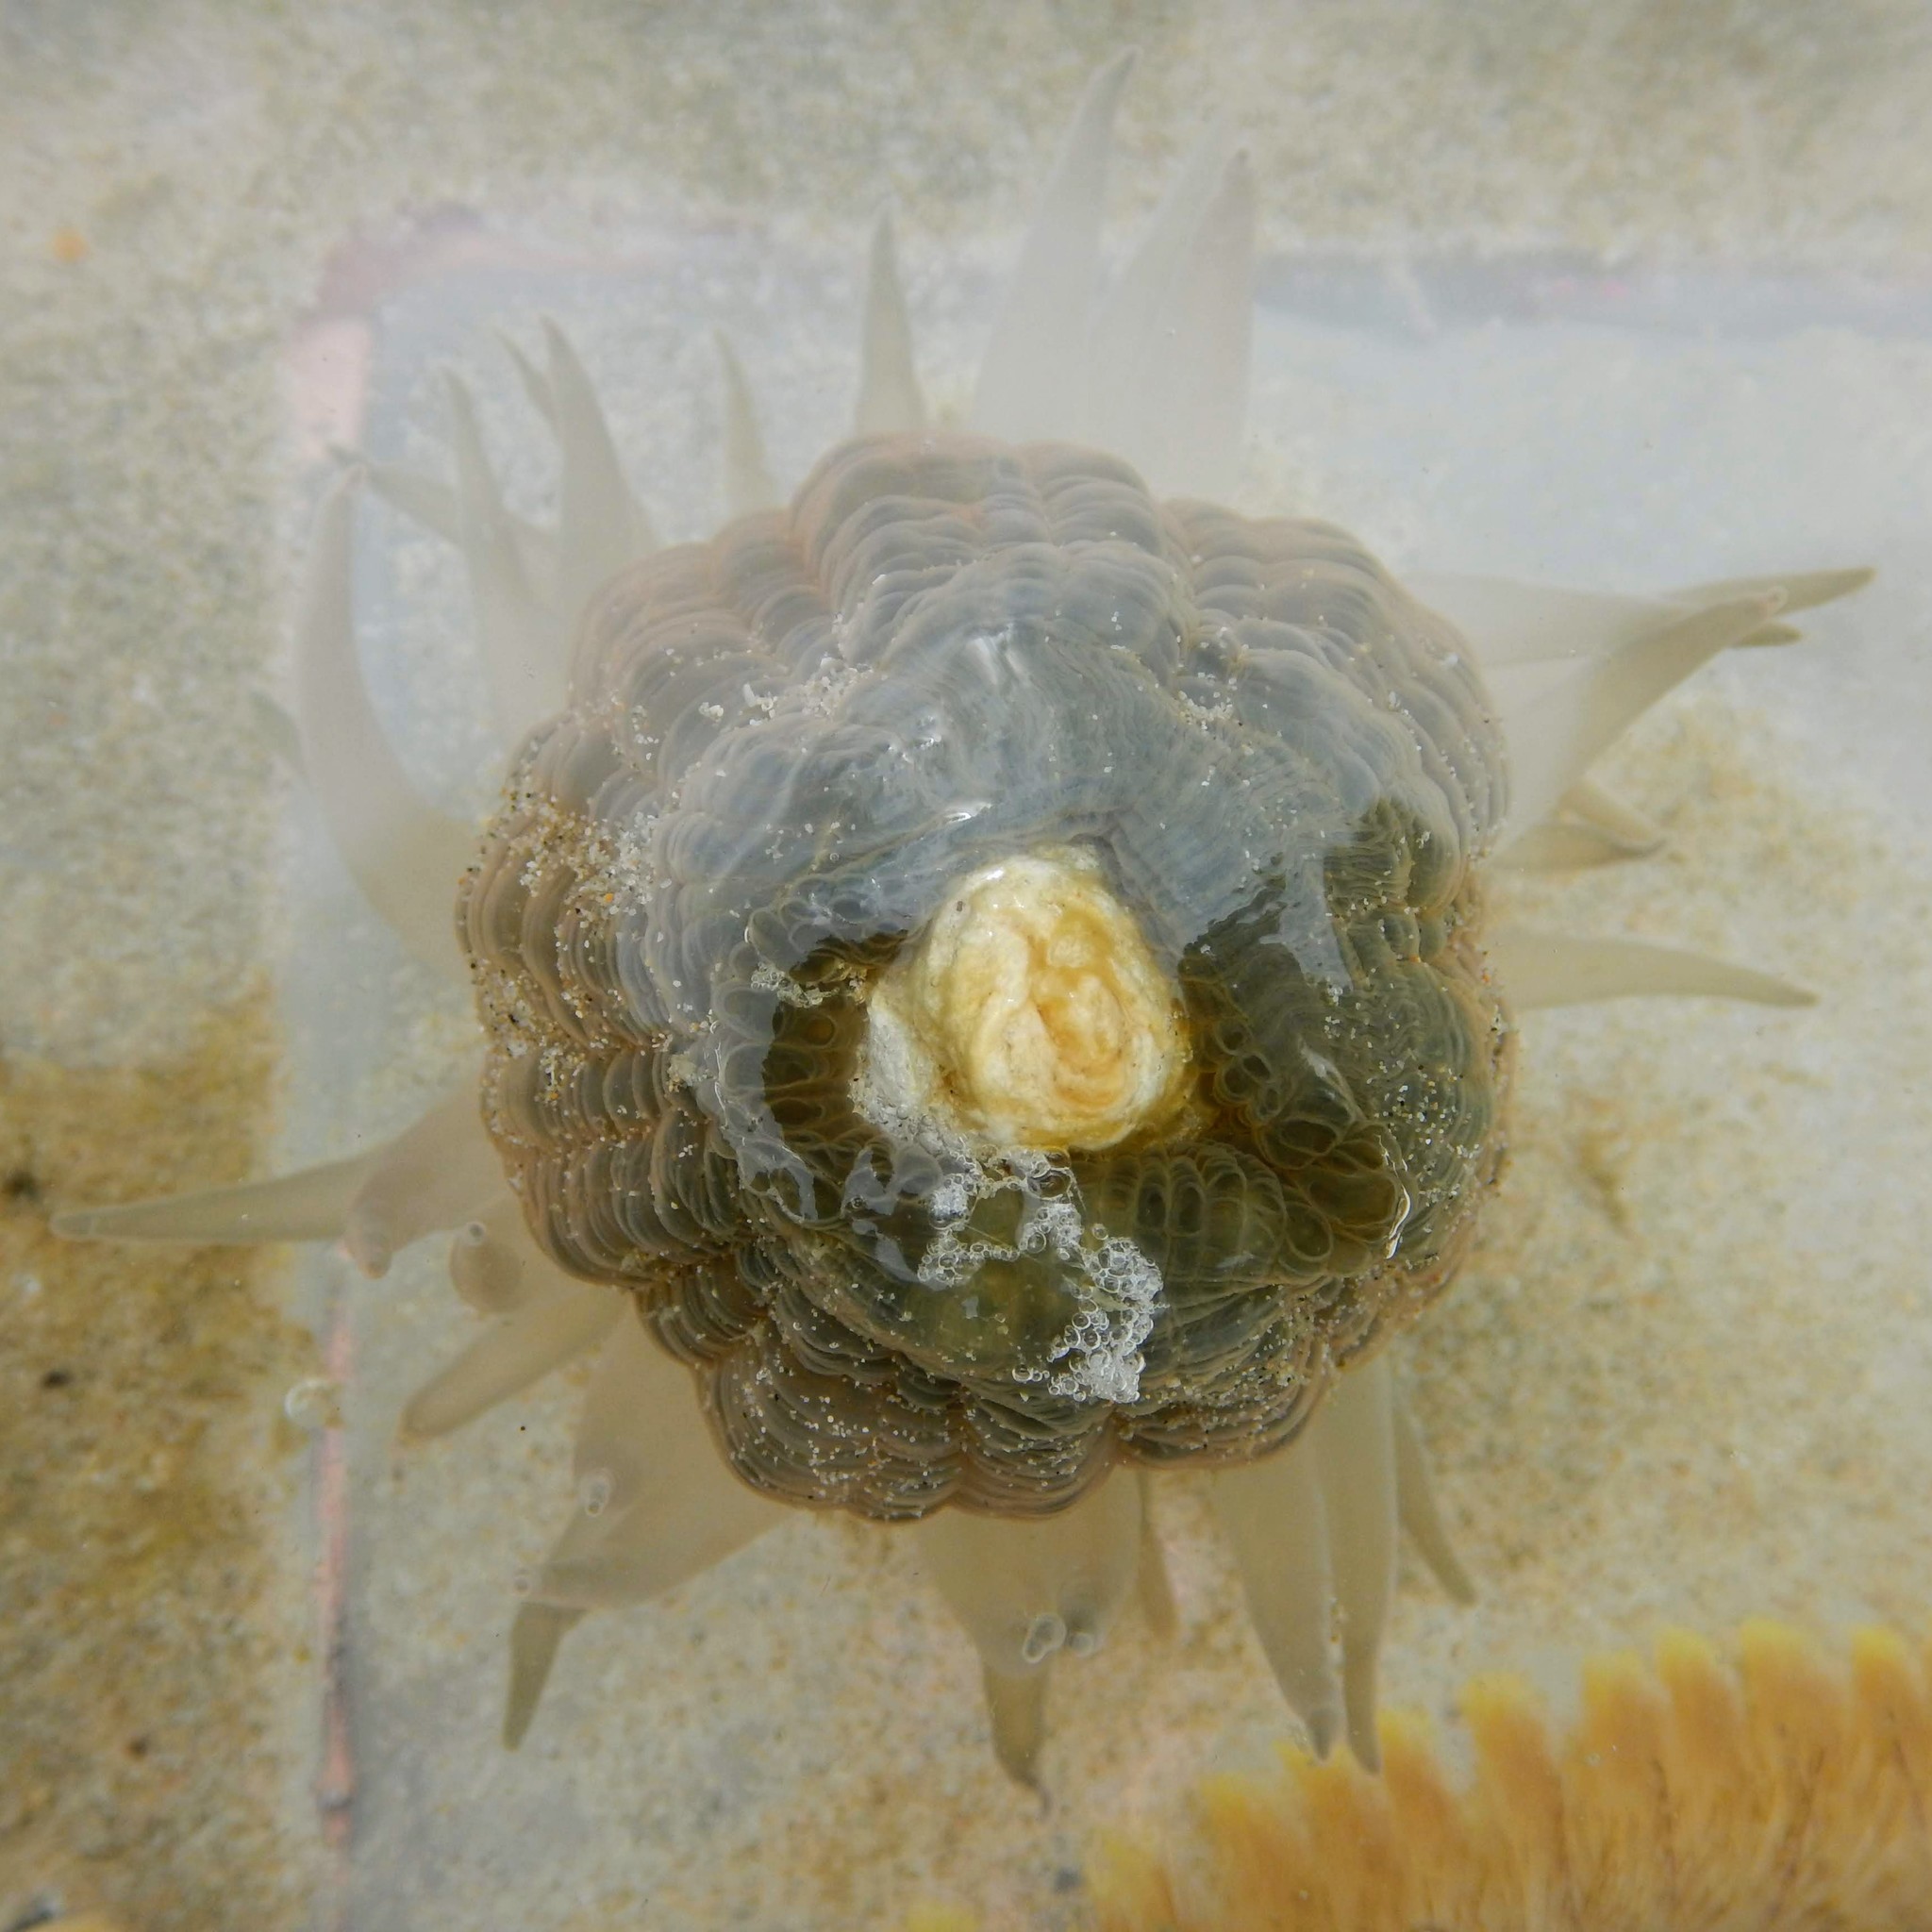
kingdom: Animalia
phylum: Cnidaria
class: Anthozoa
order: Actiniaria
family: Actiniidae
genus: Paracondylactis
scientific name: Paracondylactis sinensis
